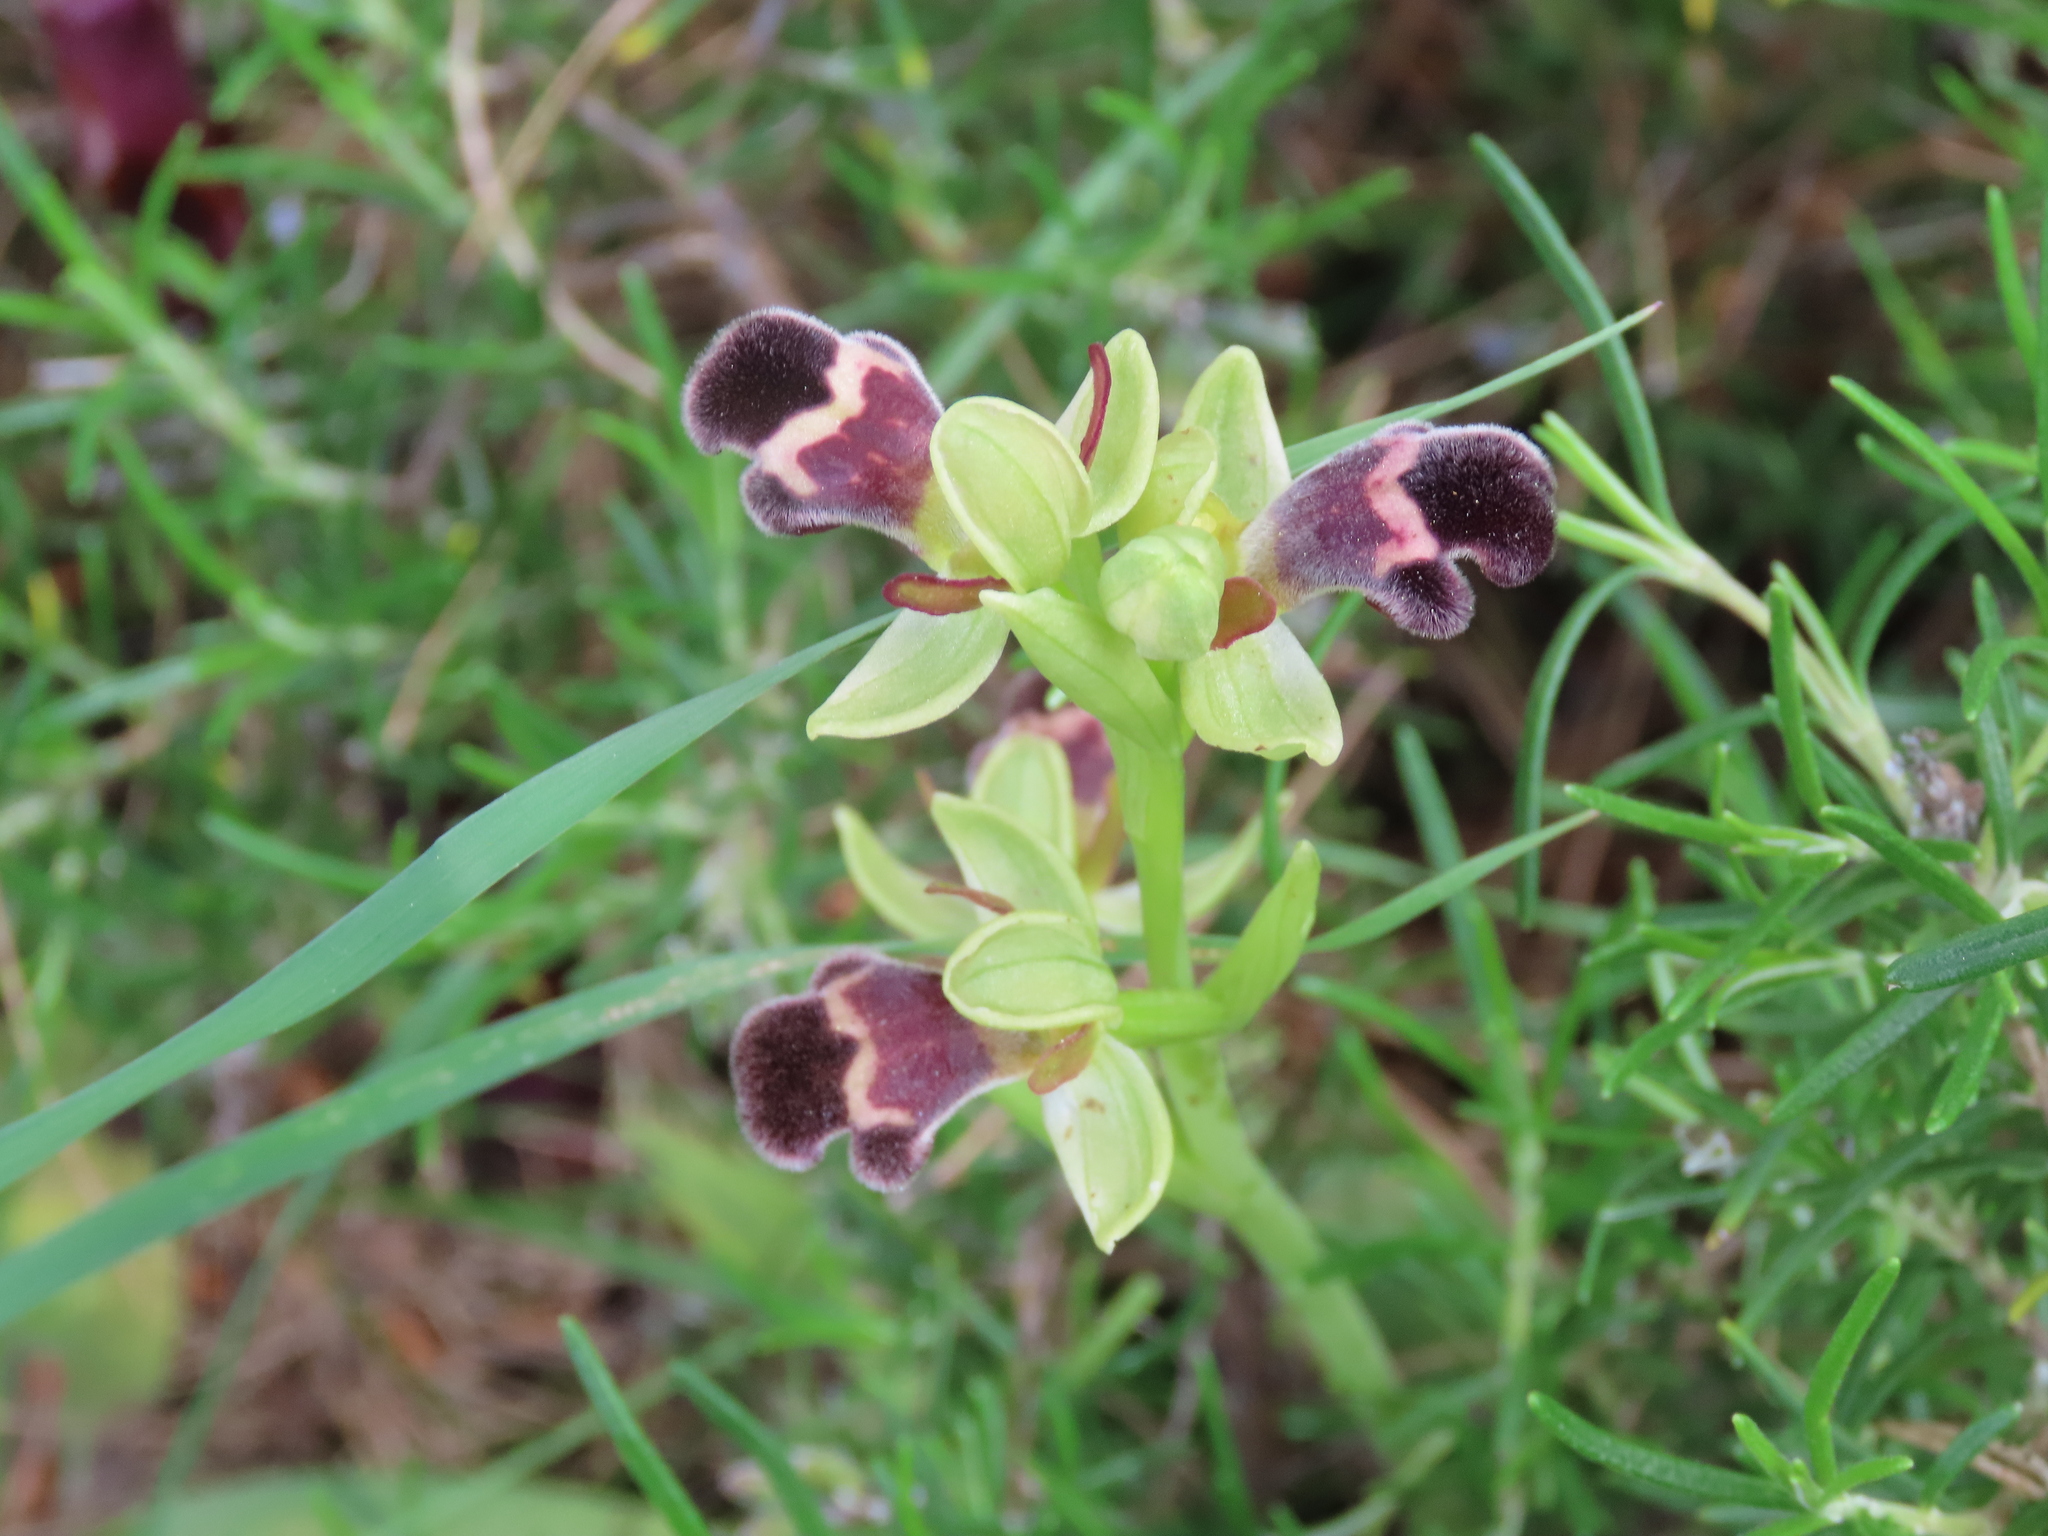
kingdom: Plantae
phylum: Tracheophyta
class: Liliopsida
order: Asparagales
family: Orchidaceae
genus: Ophrys
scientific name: Ophrys omegaifera
